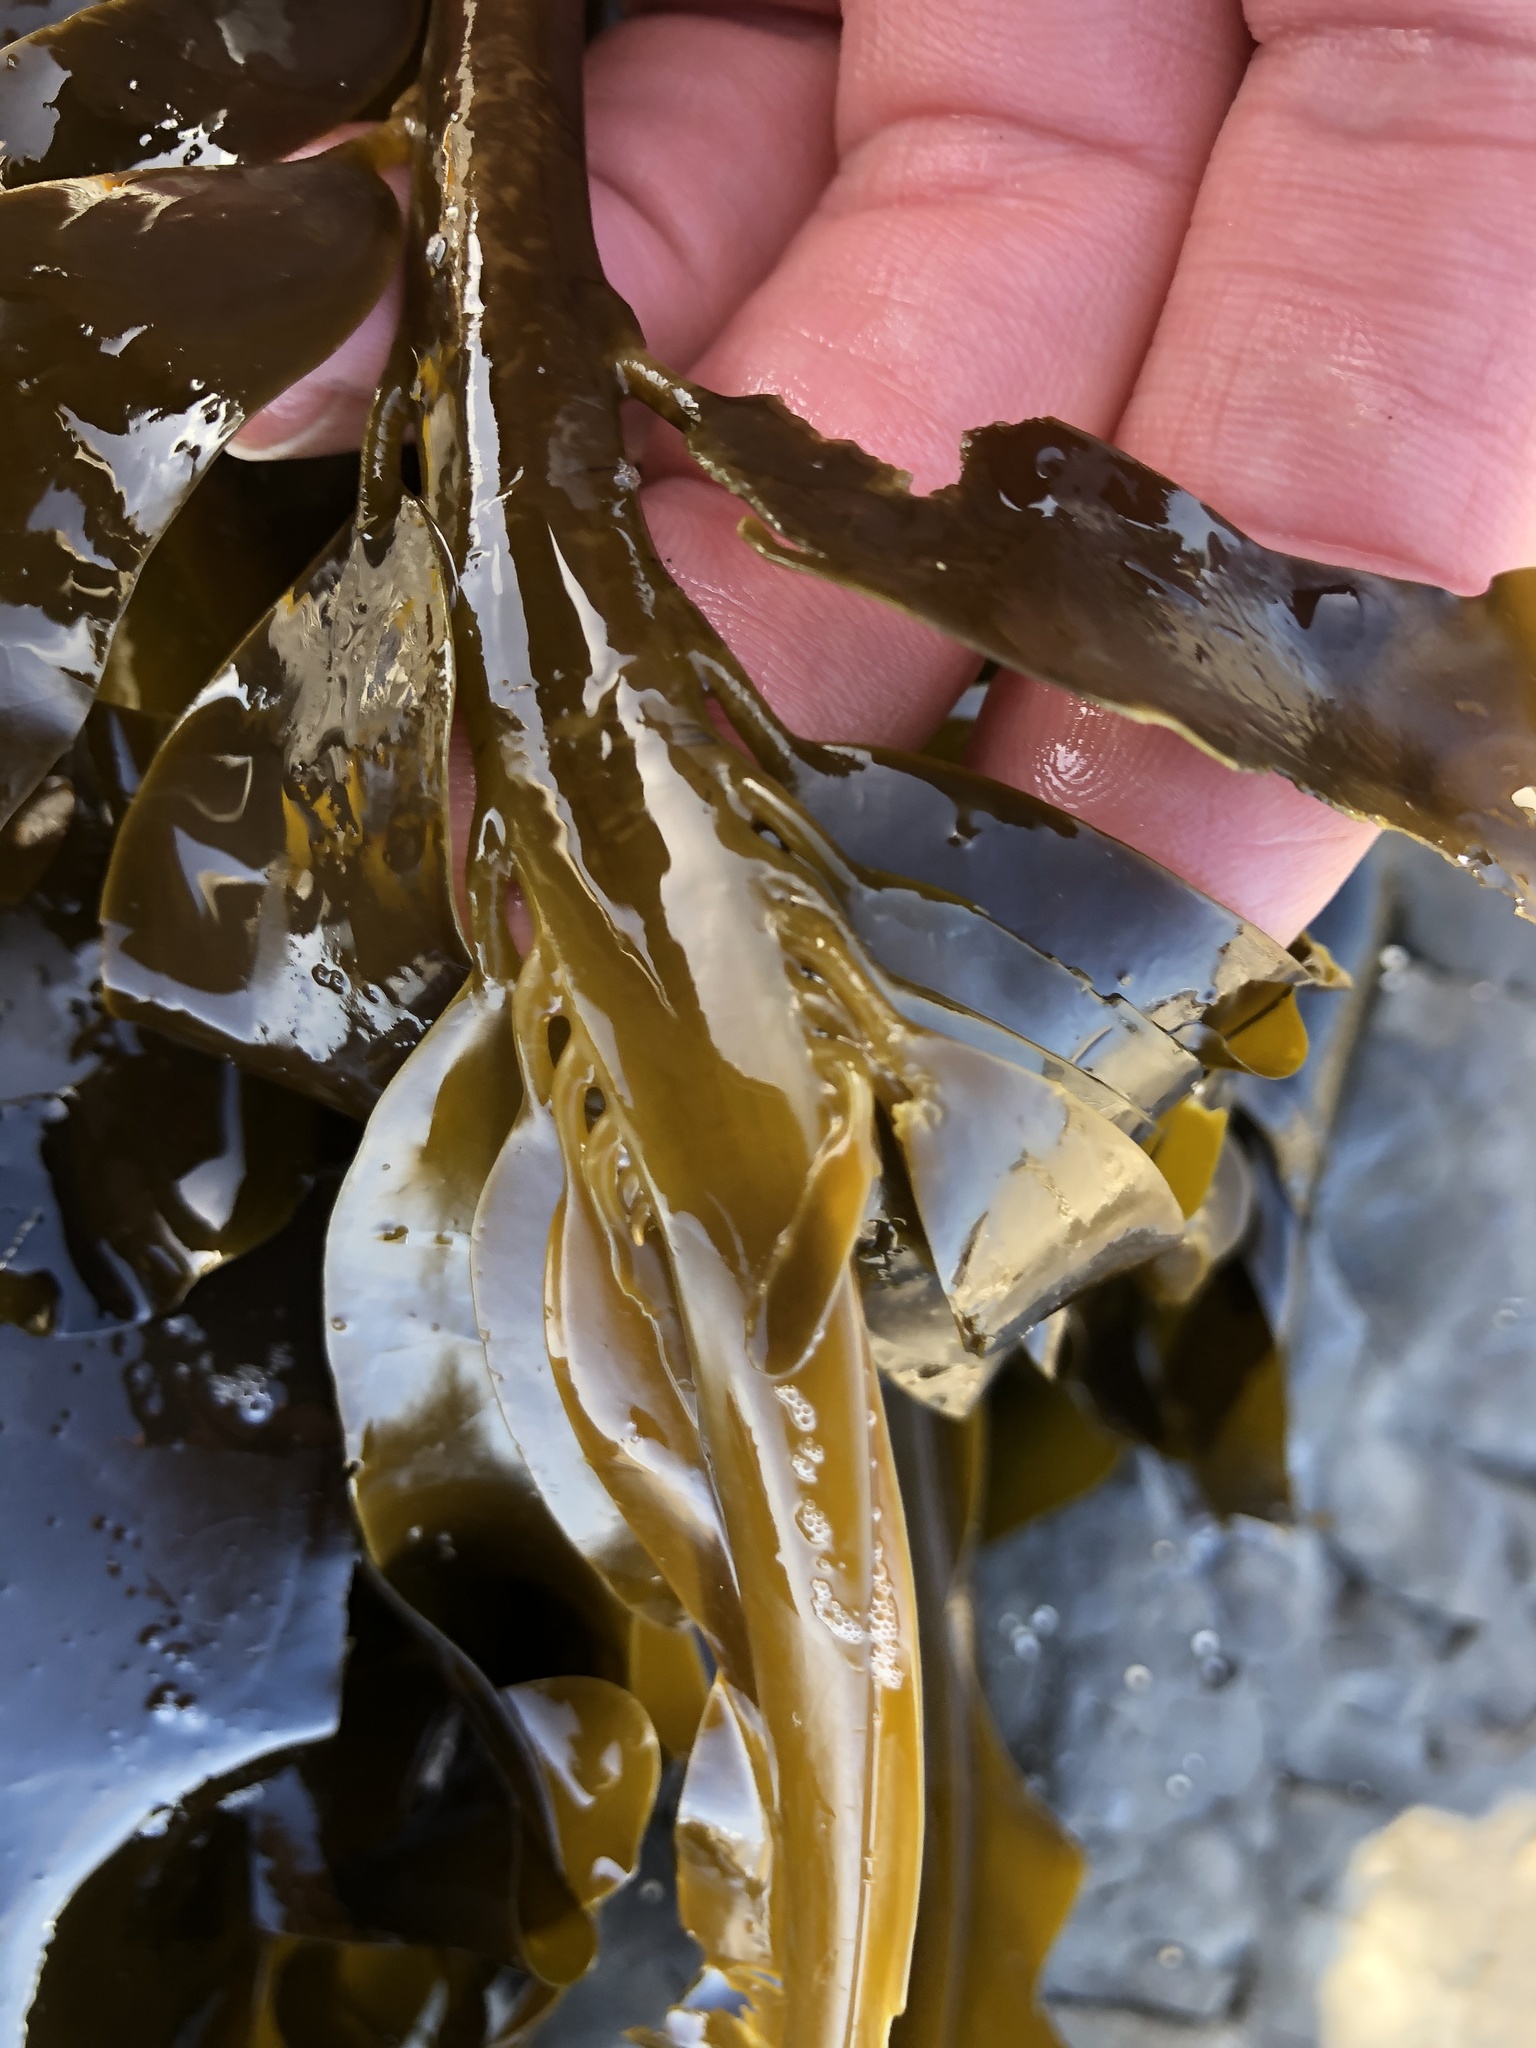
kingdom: Chromista
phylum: Ochrophyta
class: Phaeophyceae
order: Laminariales
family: Alariaceae
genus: Alaria
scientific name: Alaria marginata
